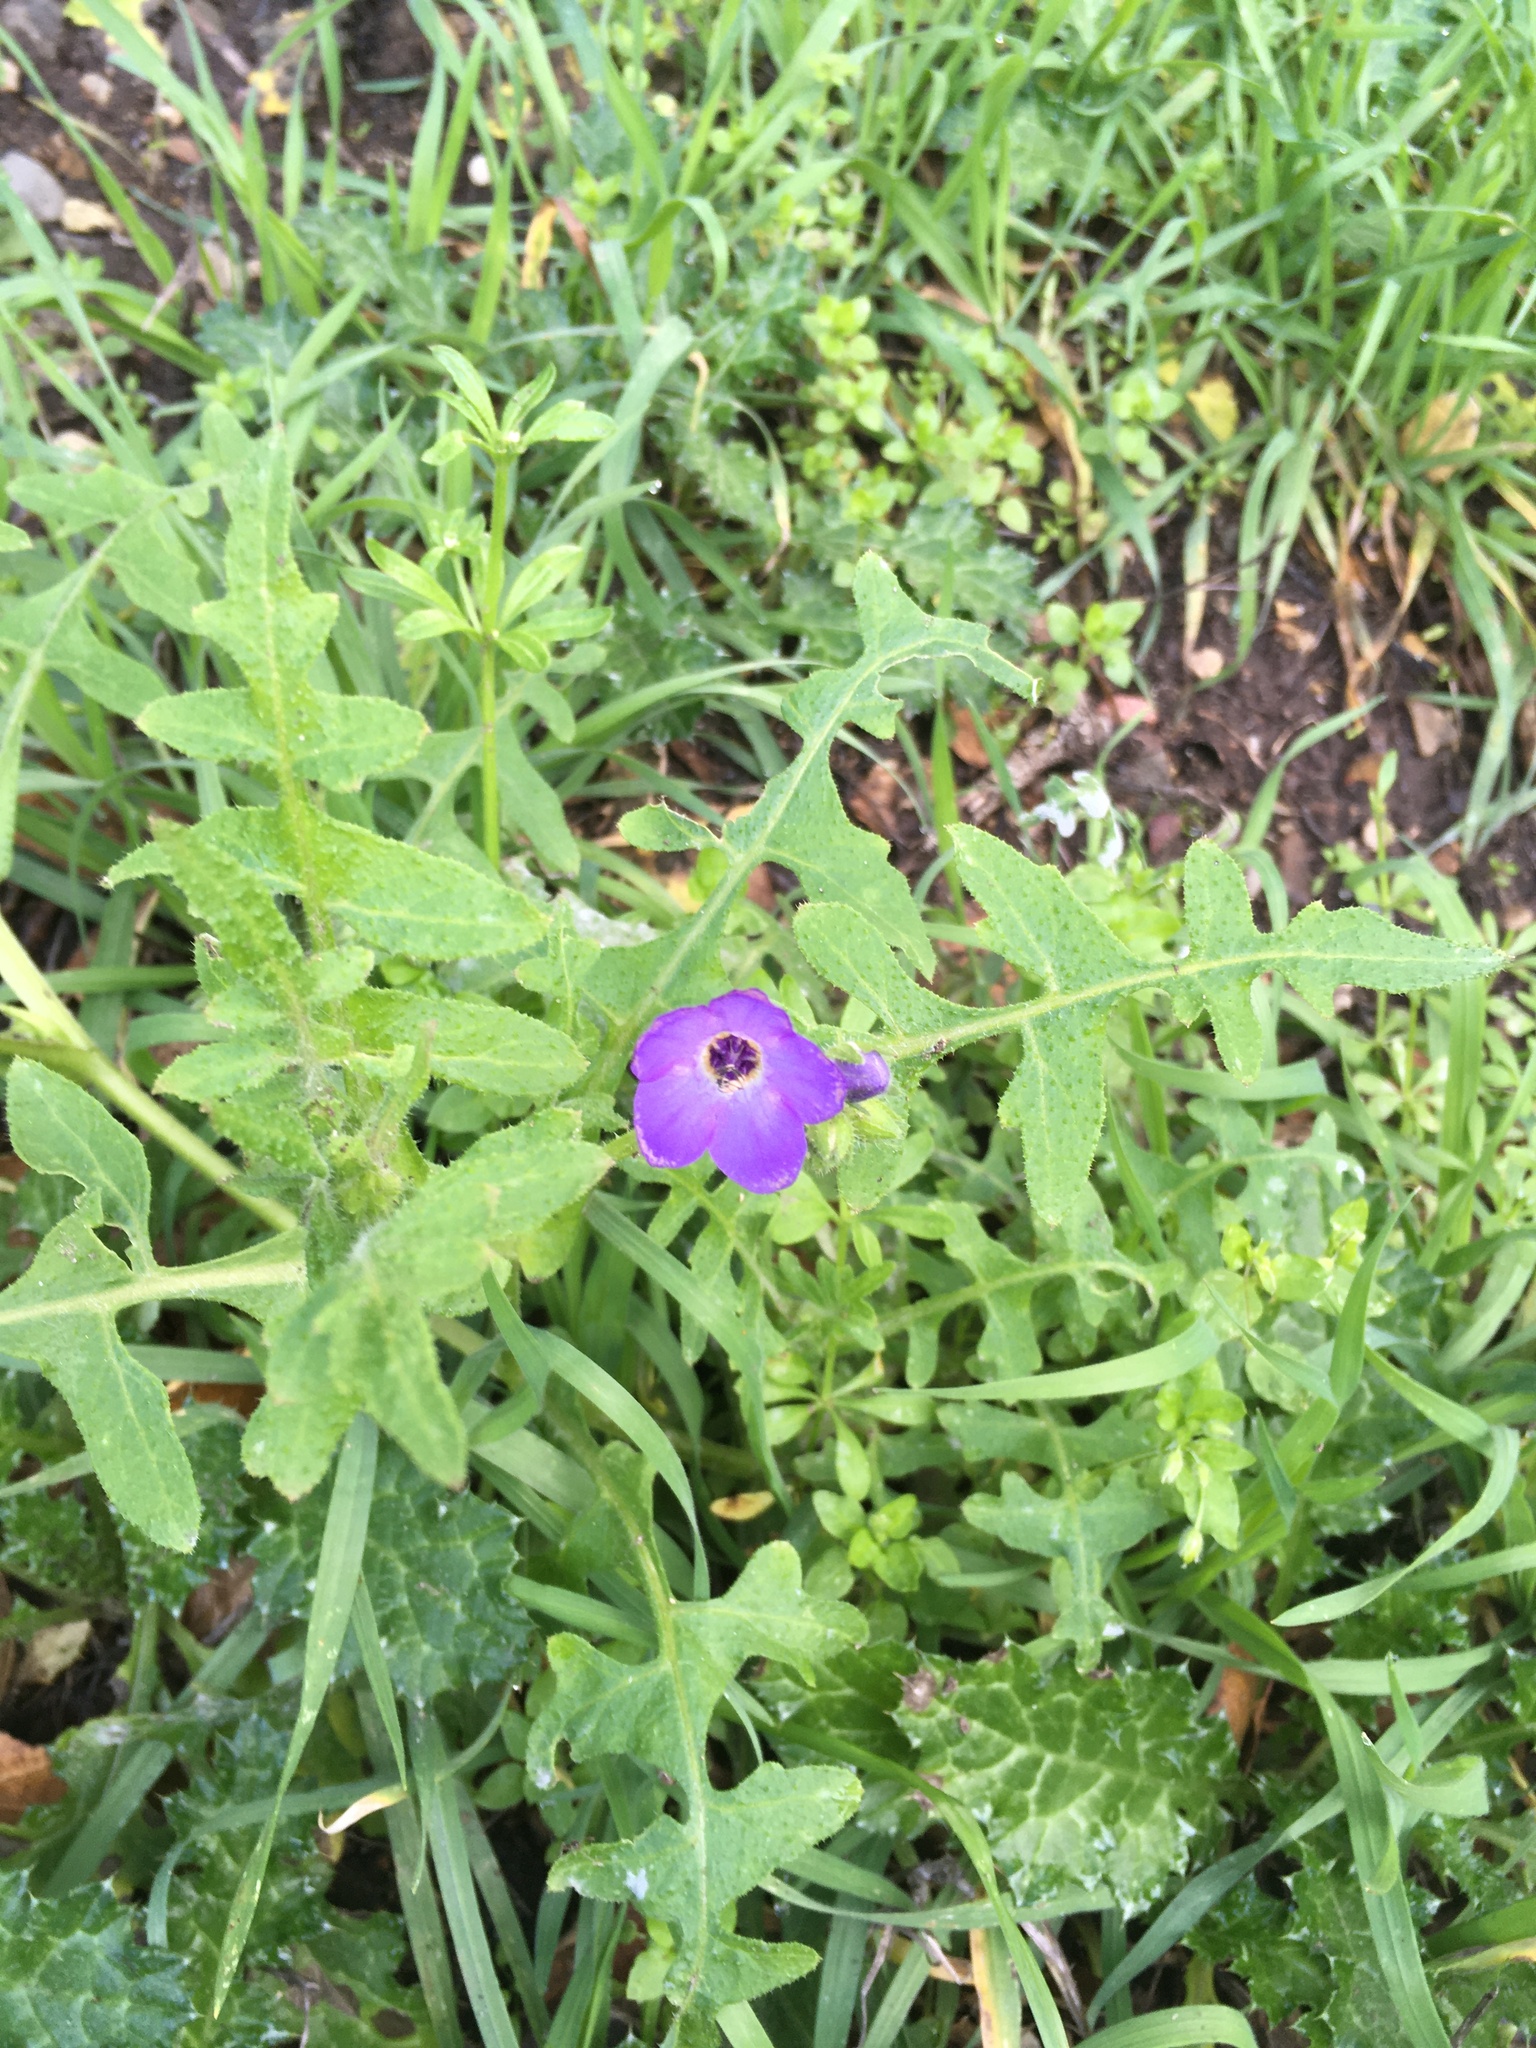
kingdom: Plantae
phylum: Tracheophyta
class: Magnoliopsida
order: Boraginales
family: Hydrophyllaceae
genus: Pholistoma
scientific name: Pholistoma auritum
